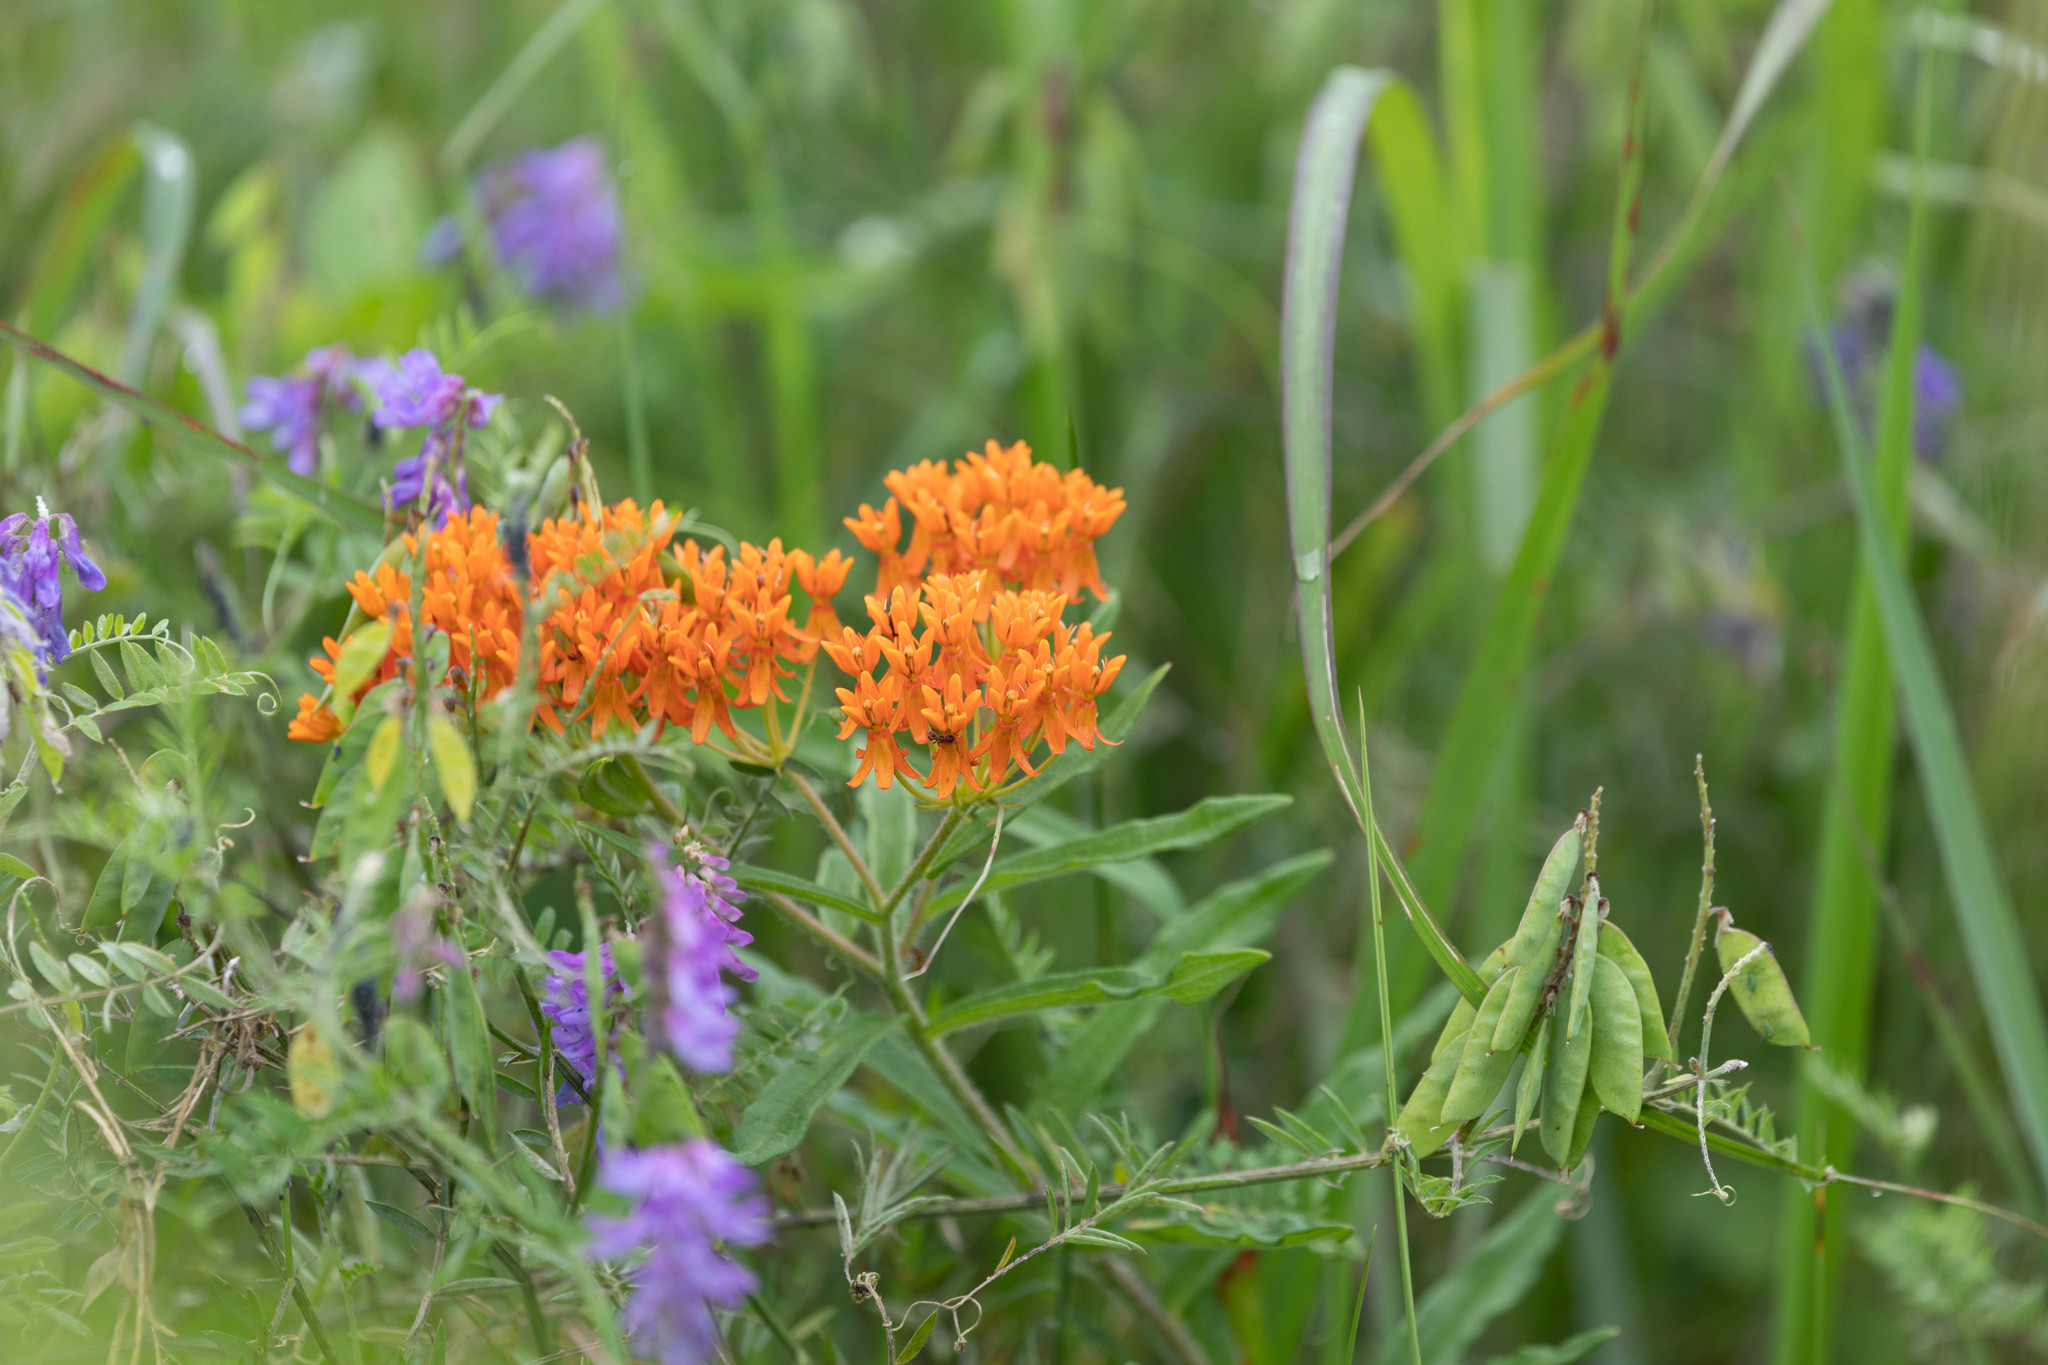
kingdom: Plantae
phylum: Tracheophyta
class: Magnoliopsida
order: Gentianales
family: Apocynaceae
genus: Asclepias
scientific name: Asclepias tuberosa
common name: Butterfly milkweed
